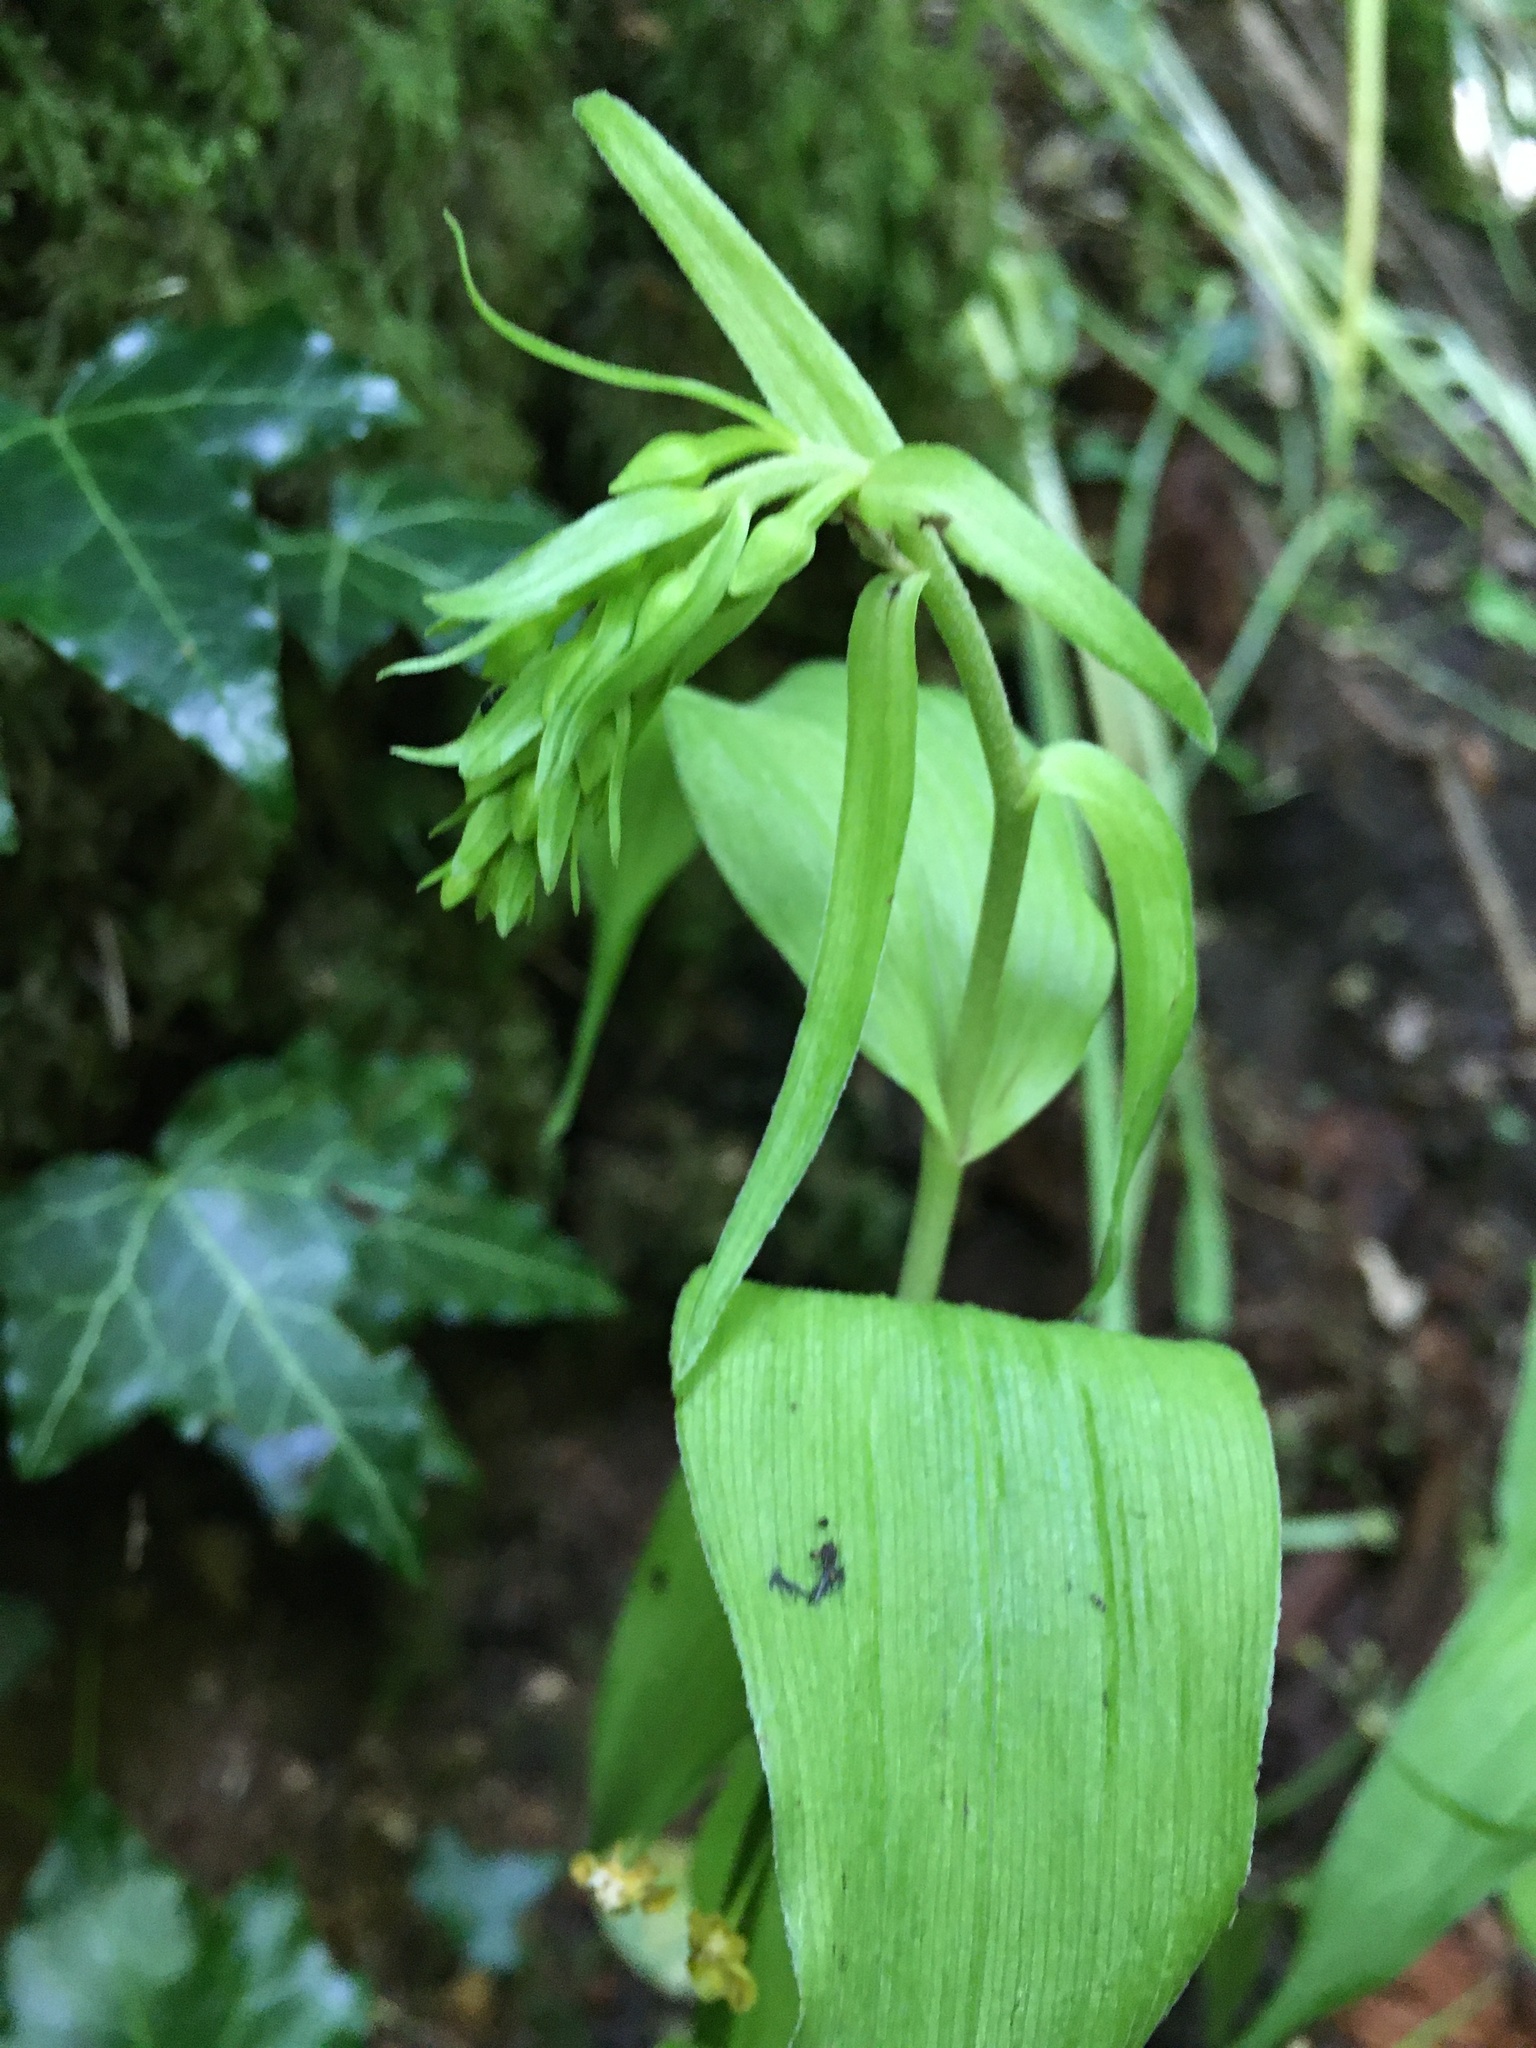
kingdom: Plantae
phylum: Tracheophyta
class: Liliopsida
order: Asparagales
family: Orchidaceae
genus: Epipactis
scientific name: Epipactis helleborine
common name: Broad-leaved helleborine
